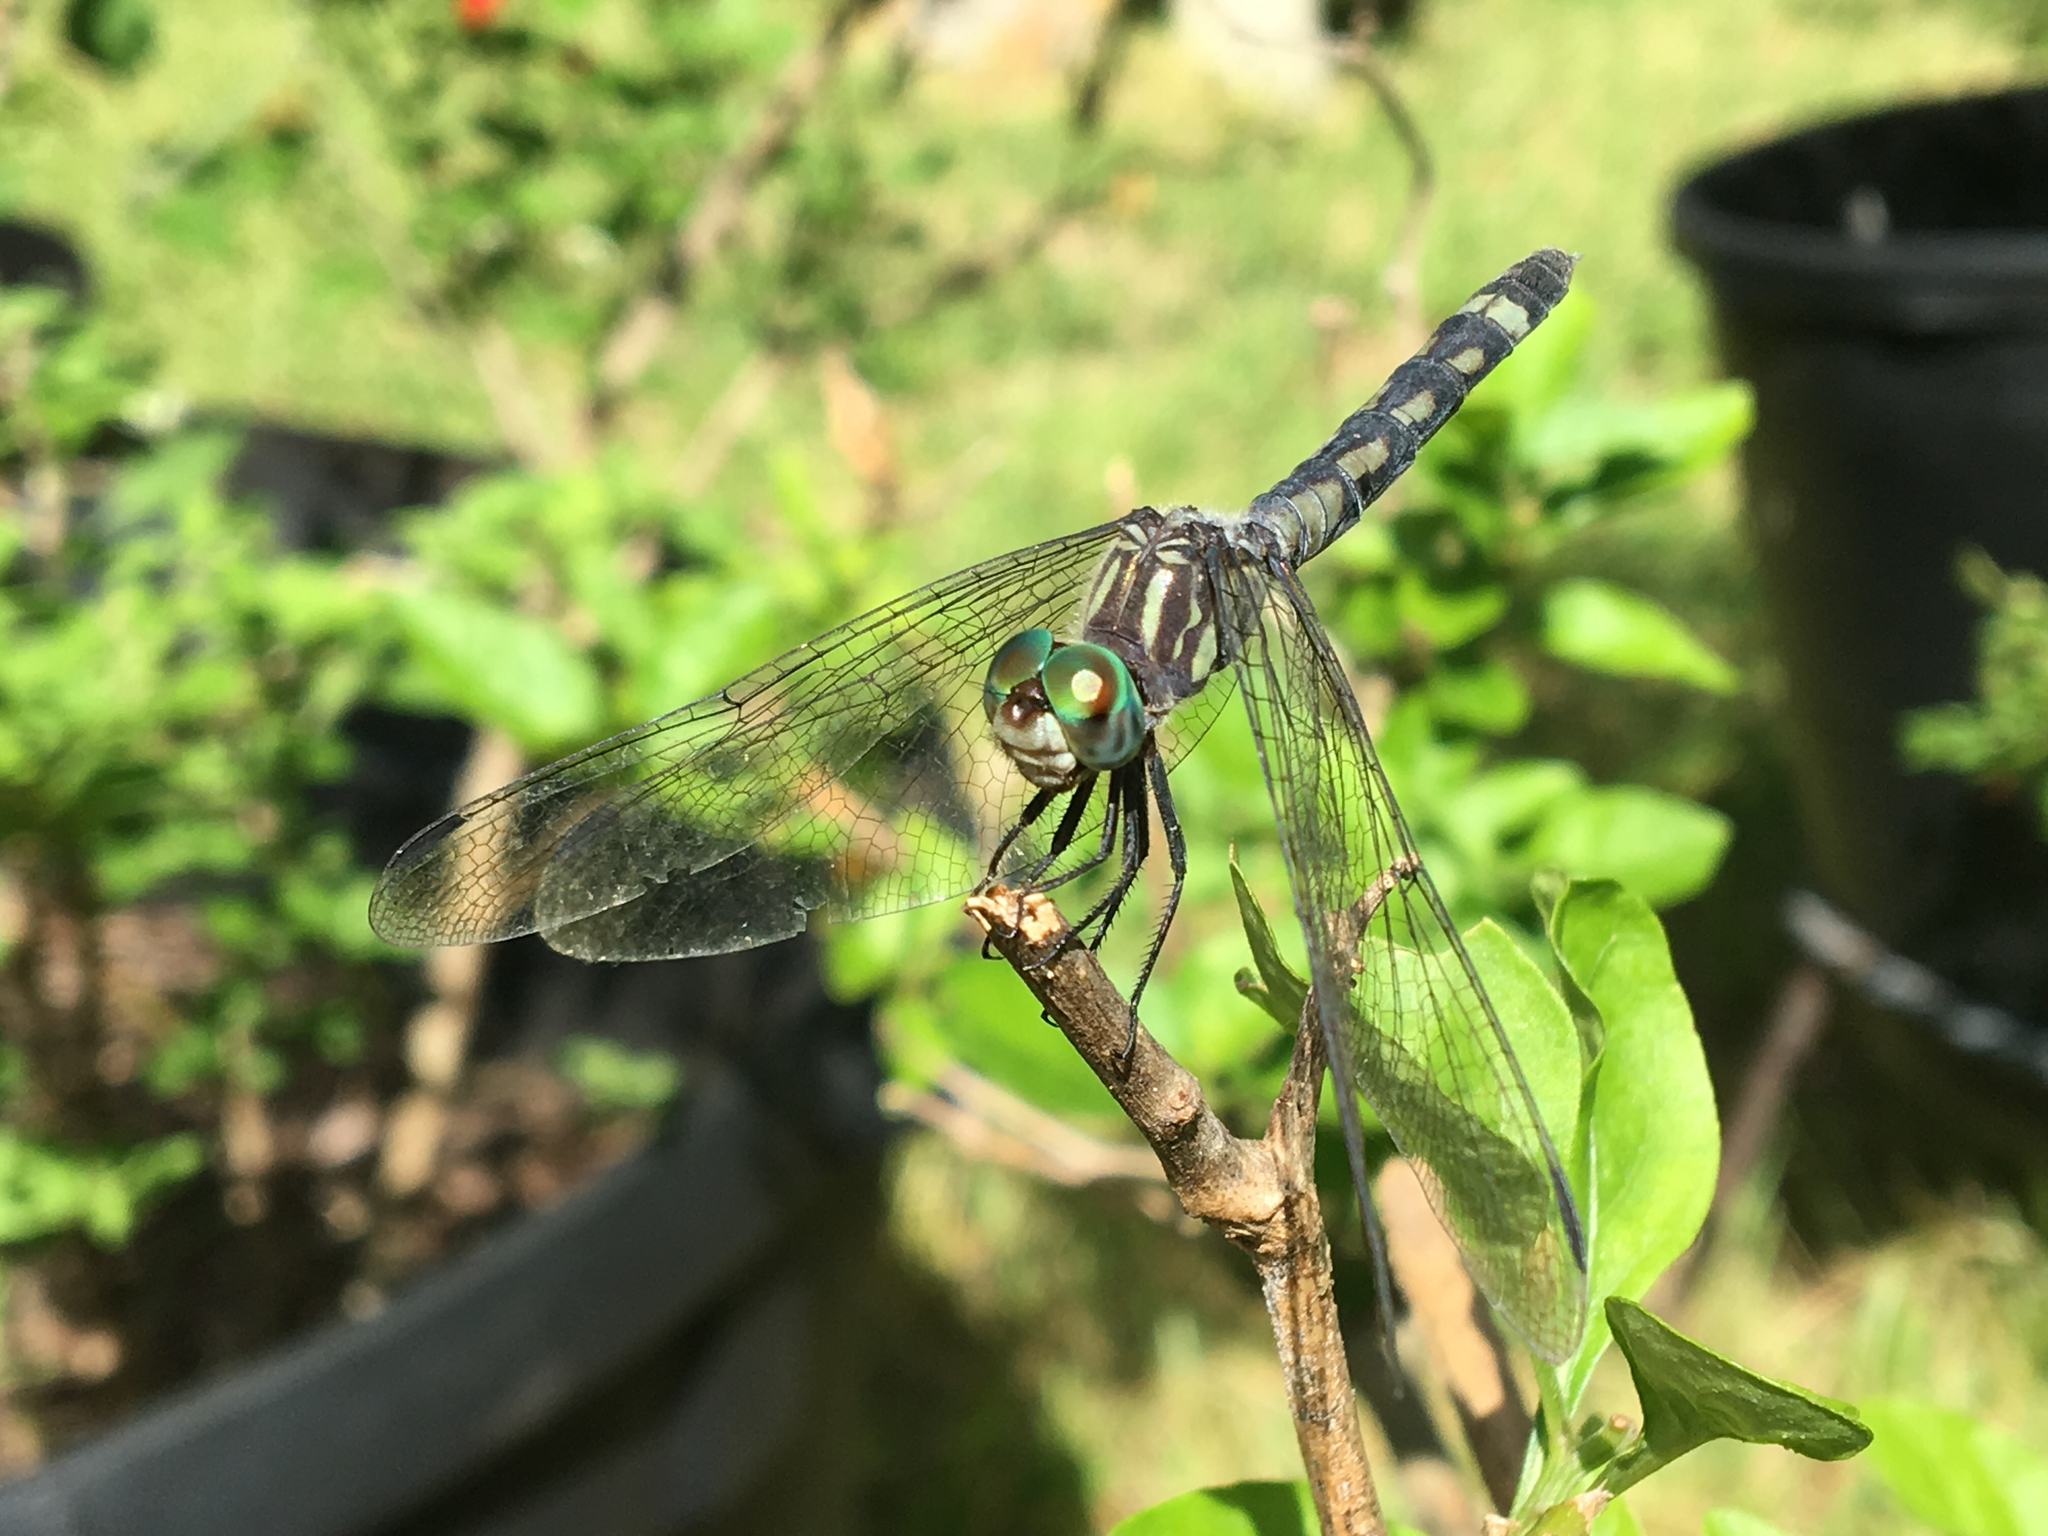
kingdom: Animalia
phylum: Arthropoda
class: Insecta
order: Odonata
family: Libellulidae
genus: Micrathyria
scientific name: Micrathyria hagenii
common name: Thornbush dasher
